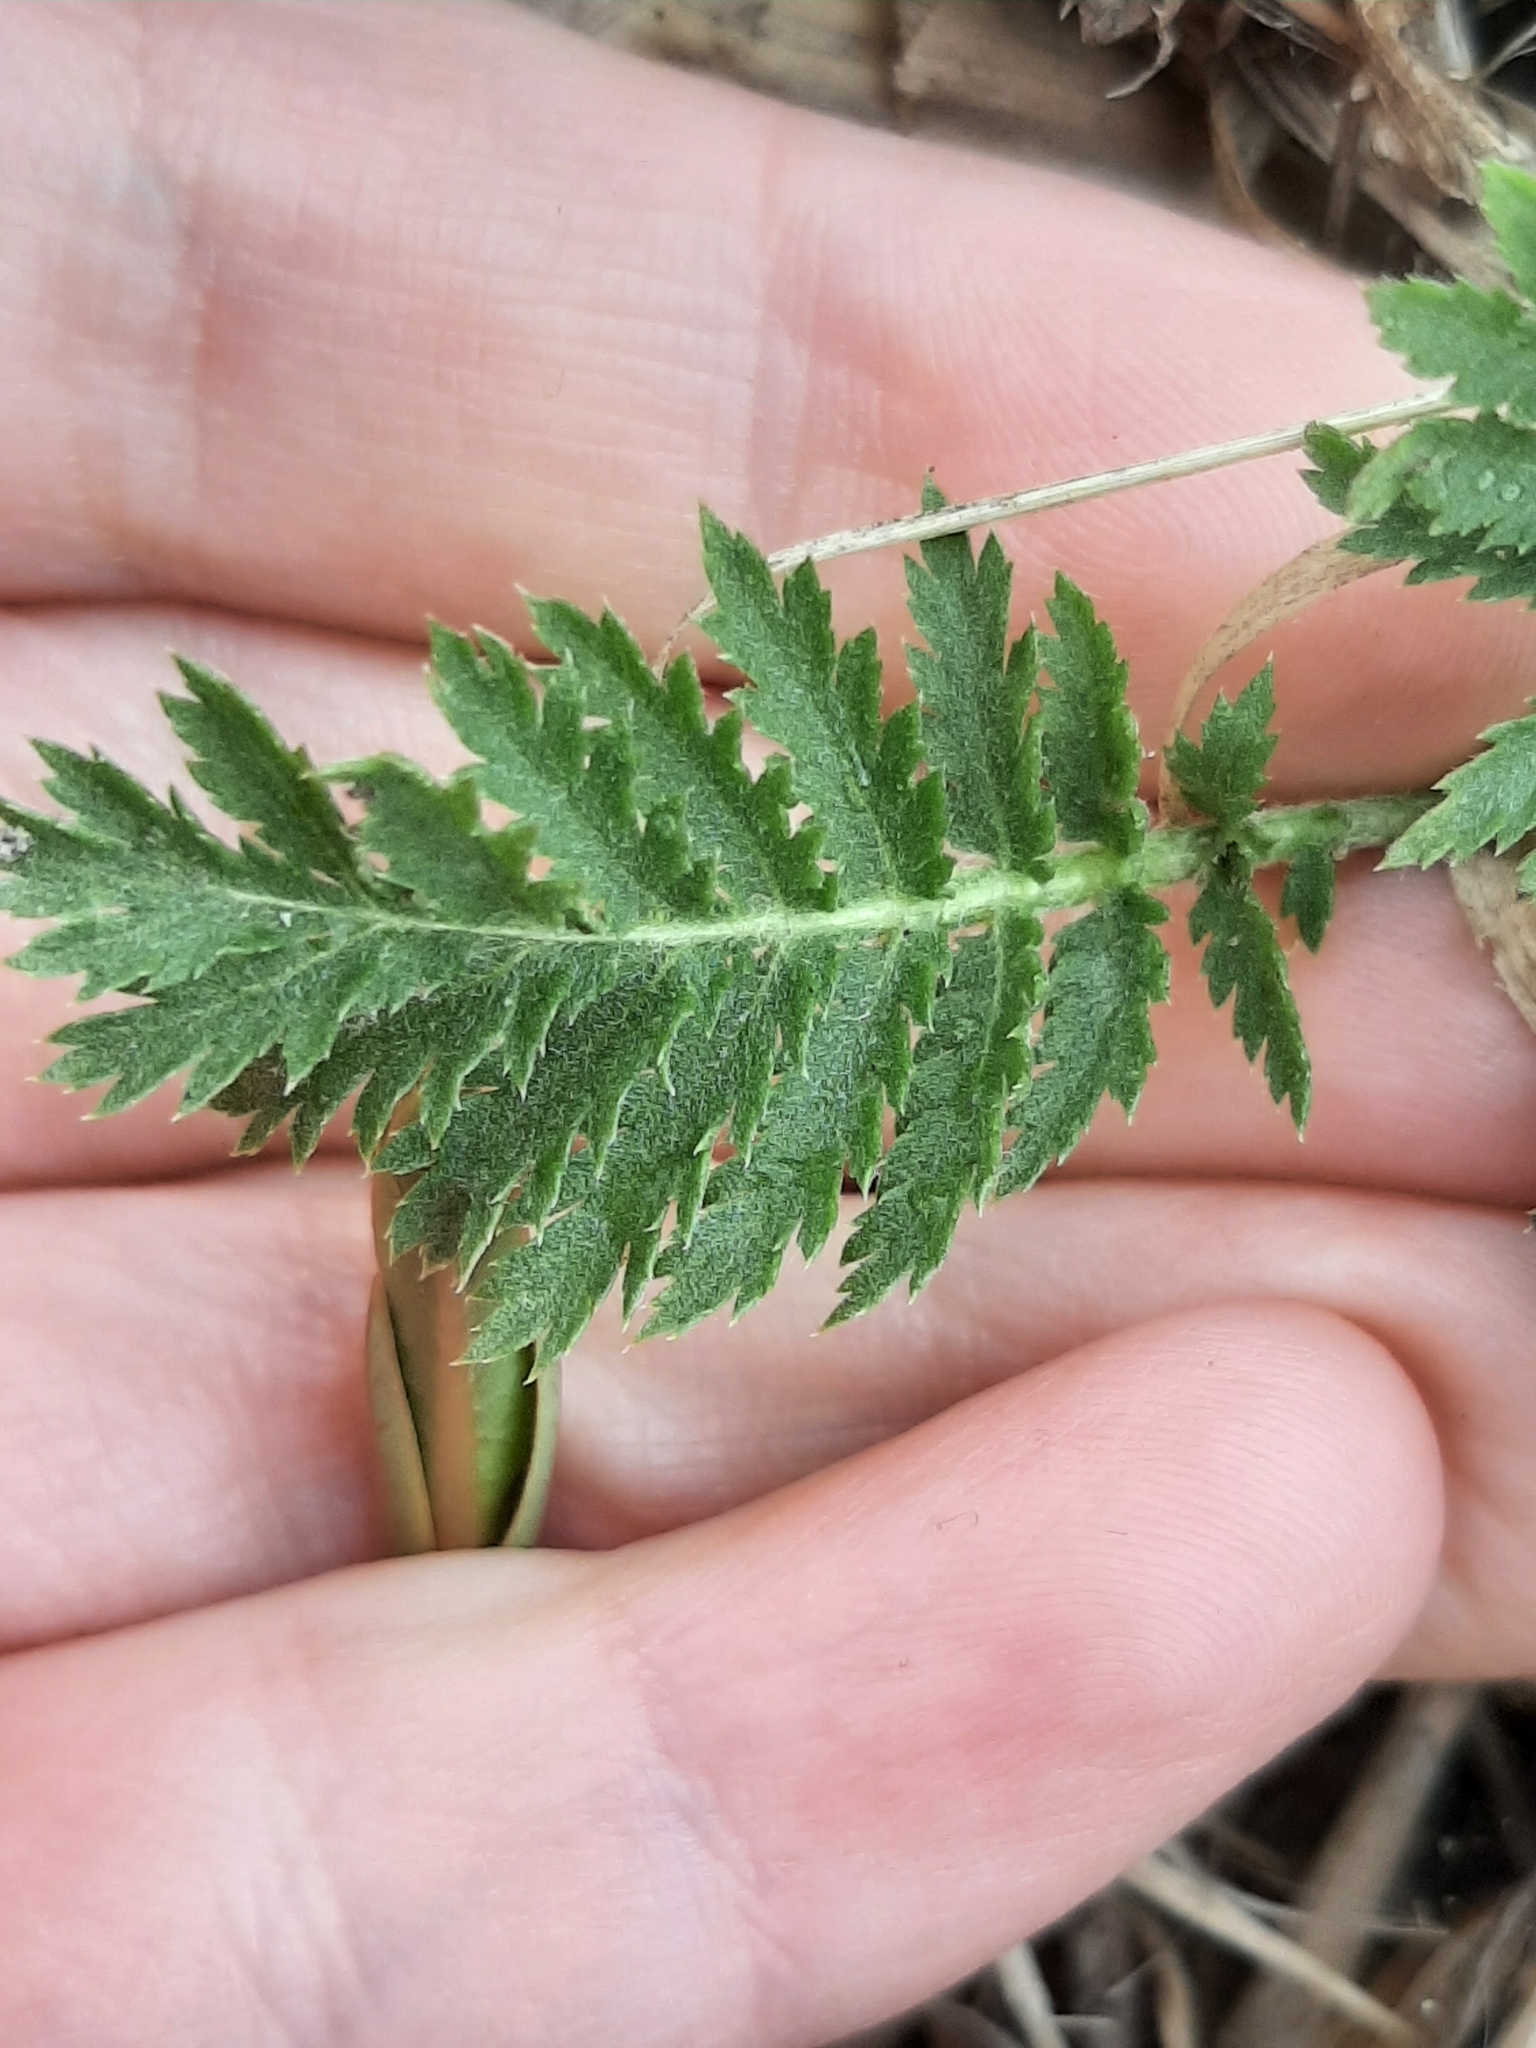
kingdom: Plantae
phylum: Tracheophyta
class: Magnoliopsida
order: Asterales
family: Asteraceae
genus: Tanacetum
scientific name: Tanacetum vulgare
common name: Common tansy
